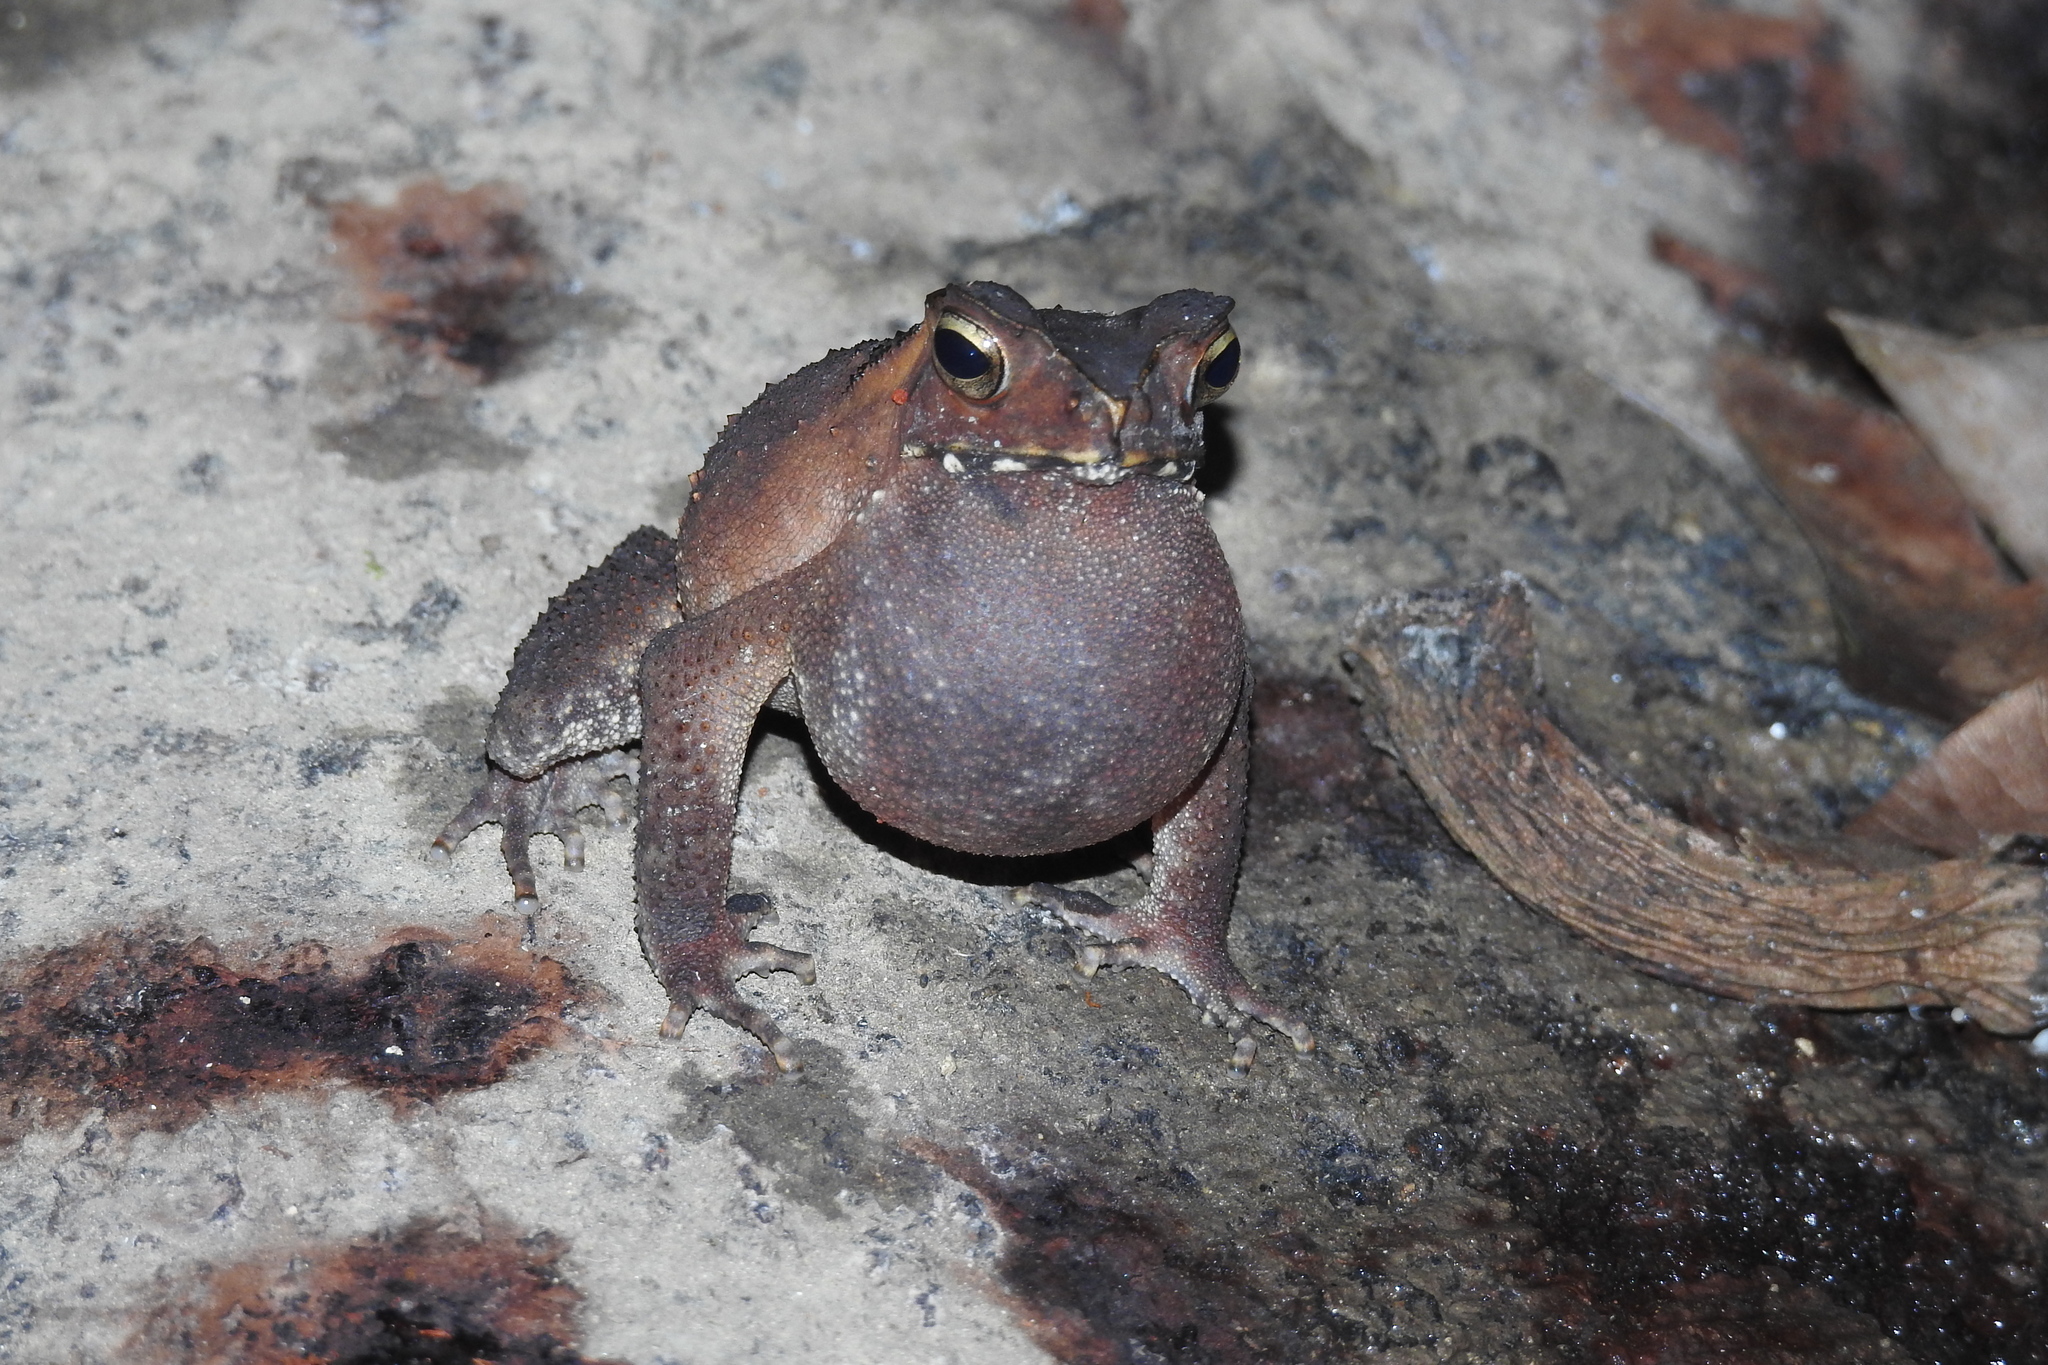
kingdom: Animalia
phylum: Chordata
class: Amphibia
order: Anura
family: Bufonidae
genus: Ingerophrynus
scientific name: Ingerophrynus celebensis
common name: Celebes toad
